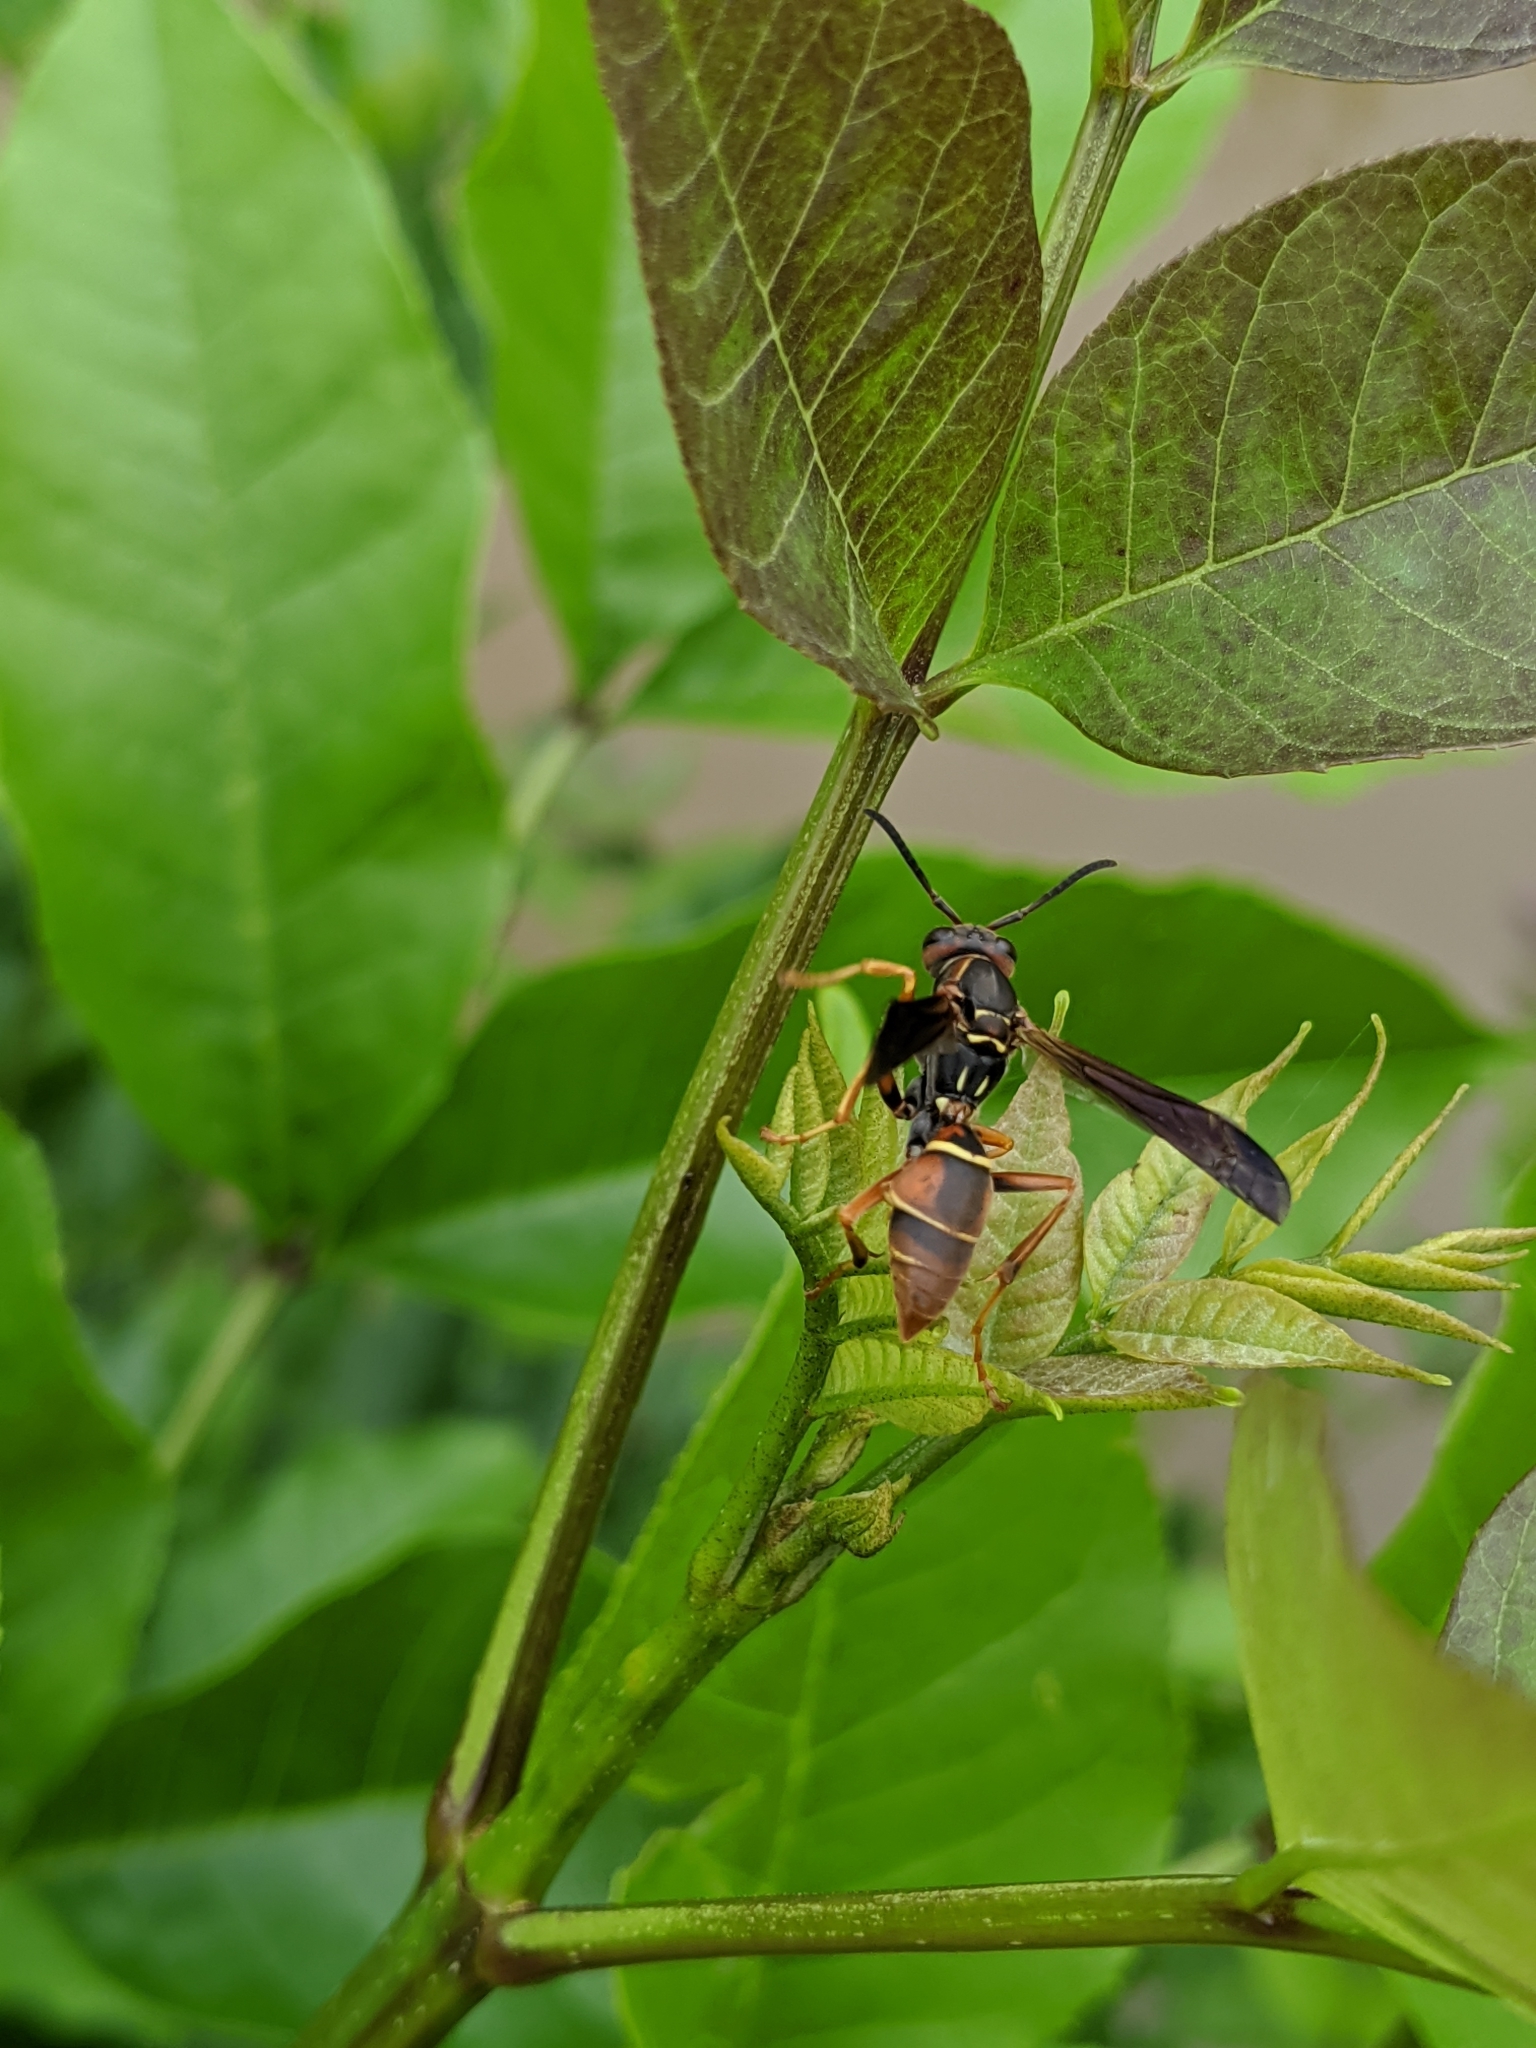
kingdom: Animalia
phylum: Arthropoda
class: Insecta
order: Hymenoptera
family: Eumenidae
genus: Polistes
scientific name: Polistes fuscatus
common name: Dark paper wasp
